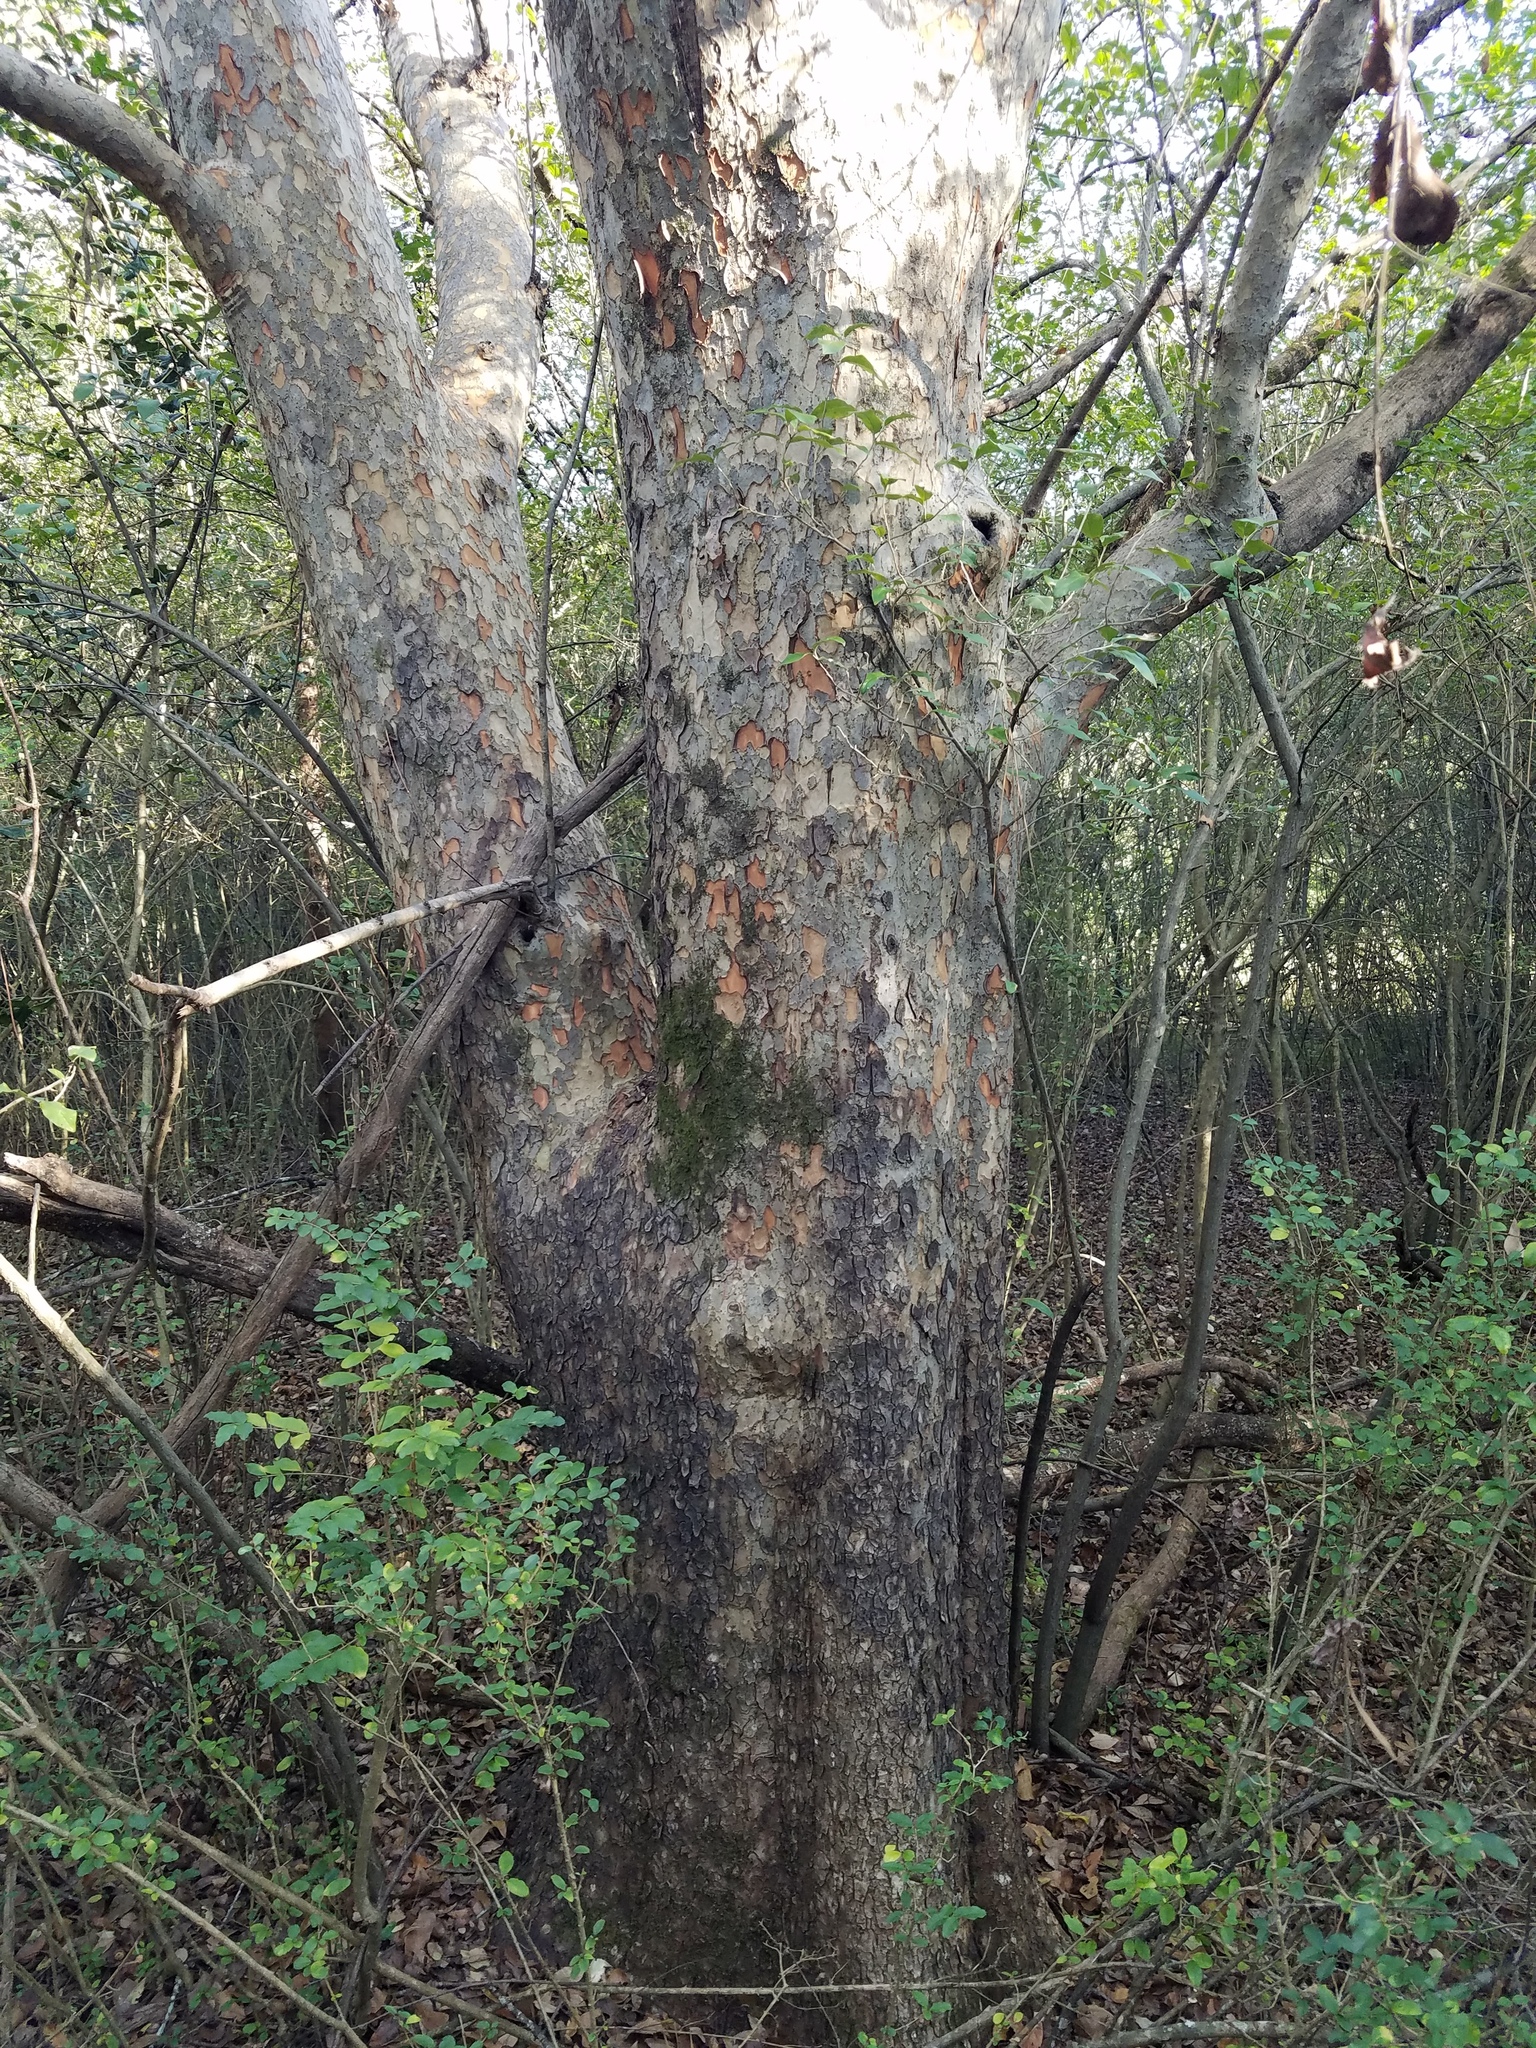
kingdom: Plantae
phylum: Tracheophyta
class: Magnoliopsida
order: Rosales
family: Ulmaceae
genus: Ulmus
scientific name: Ulmus parvifolia
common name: Chinese elm
